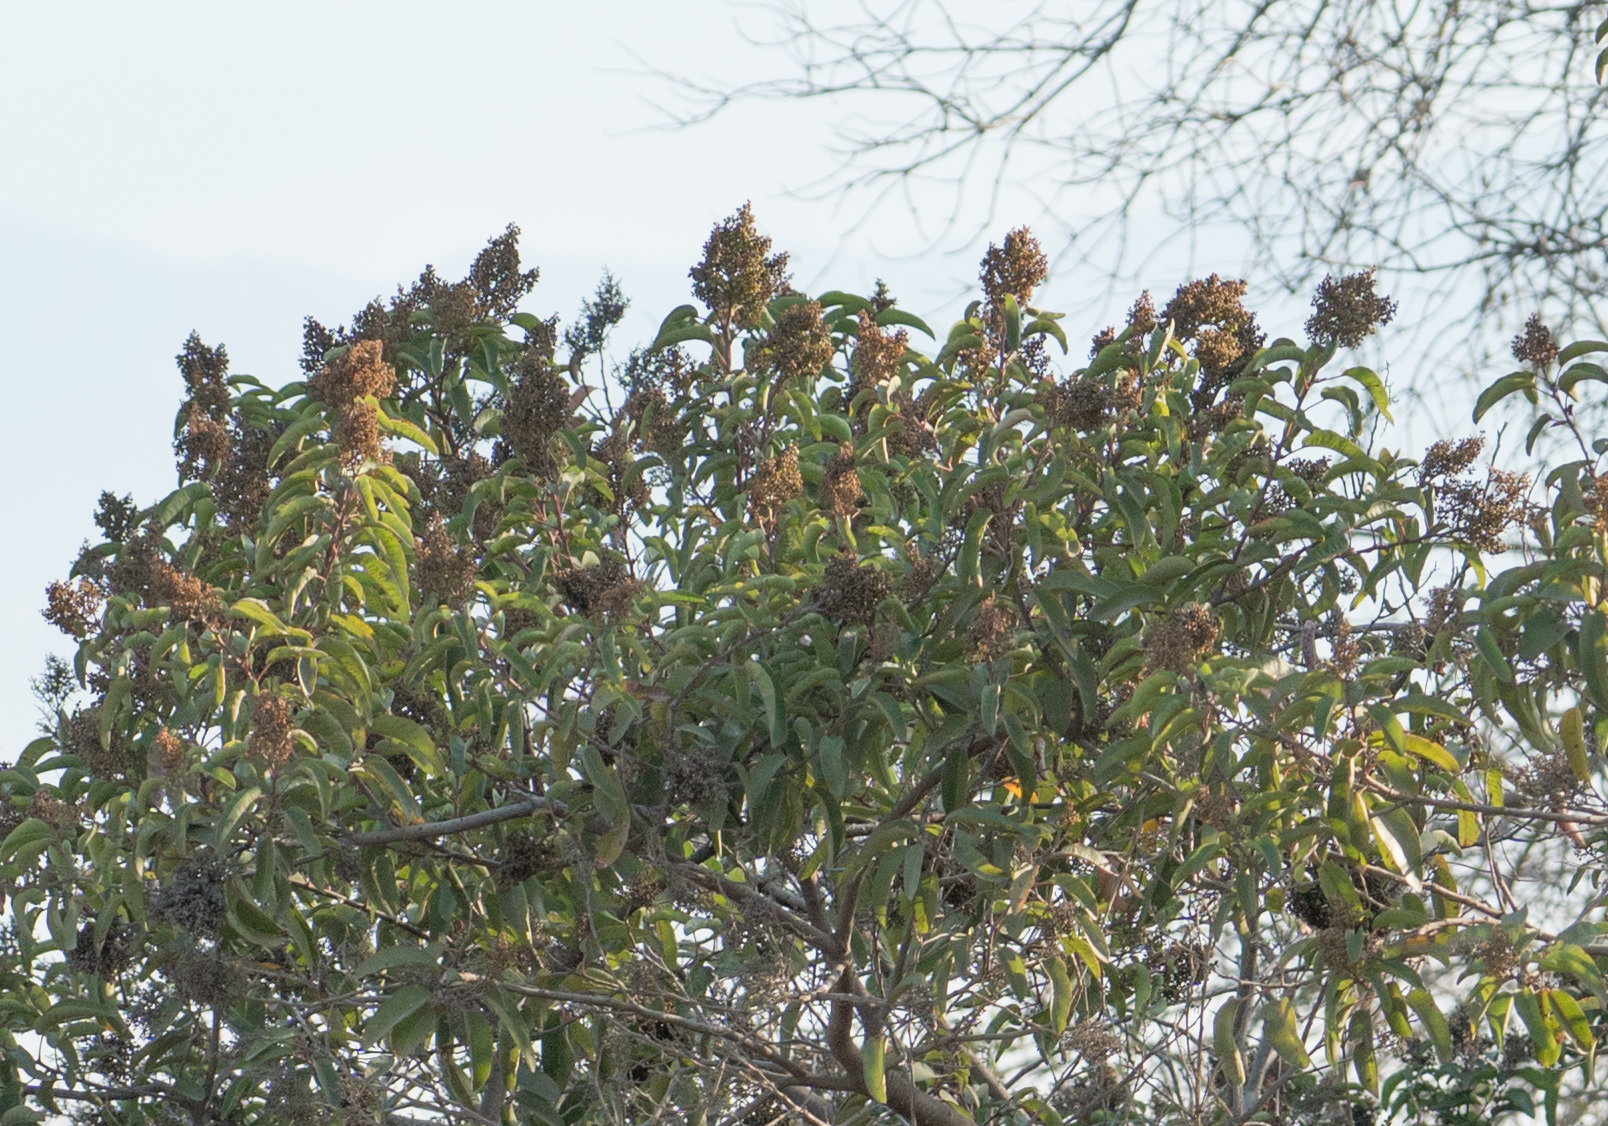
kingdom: Plantae
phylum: Tracheophyta
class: Magnoliopsida
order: Sapindales
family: Anacardiaceae
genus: Malosma
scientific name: Malosma laurina
